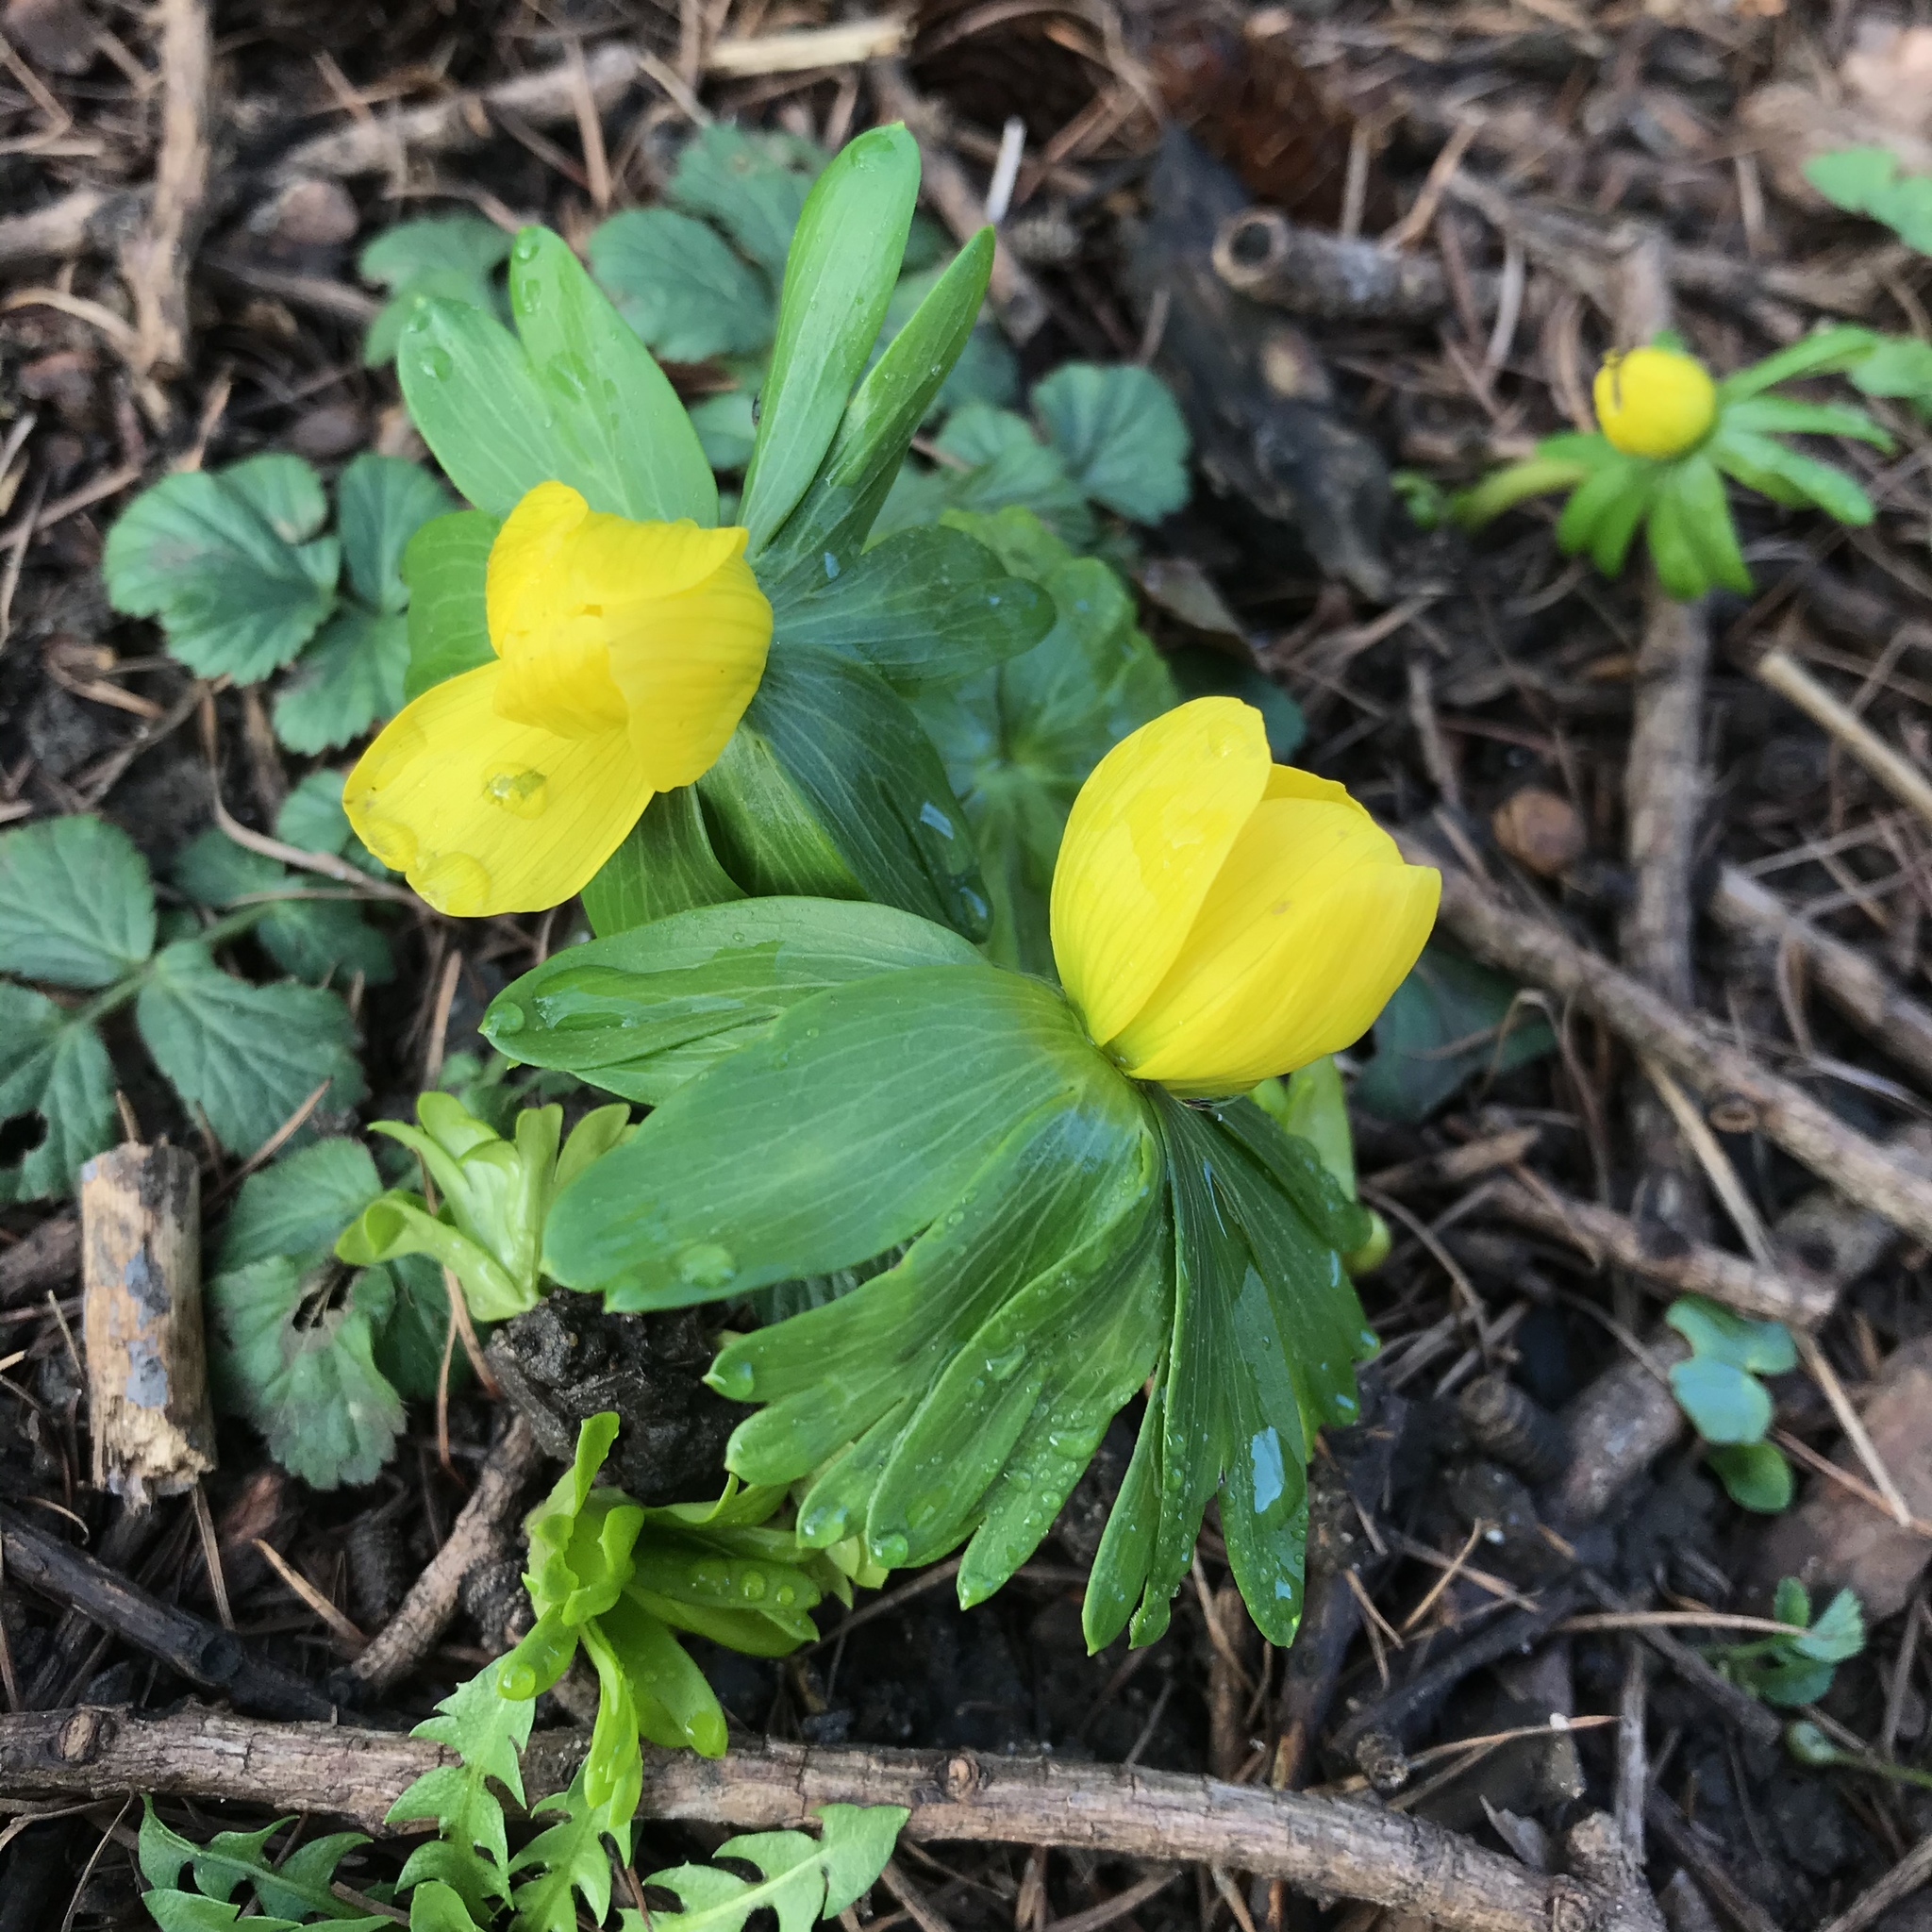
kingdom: Plantae
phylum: Tracheophyta
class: Magnoliopsida
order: Ranunculales
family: Ranunculaceae
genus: Eranthis
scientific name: Eranthis hyemalis
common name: Winter aconite
